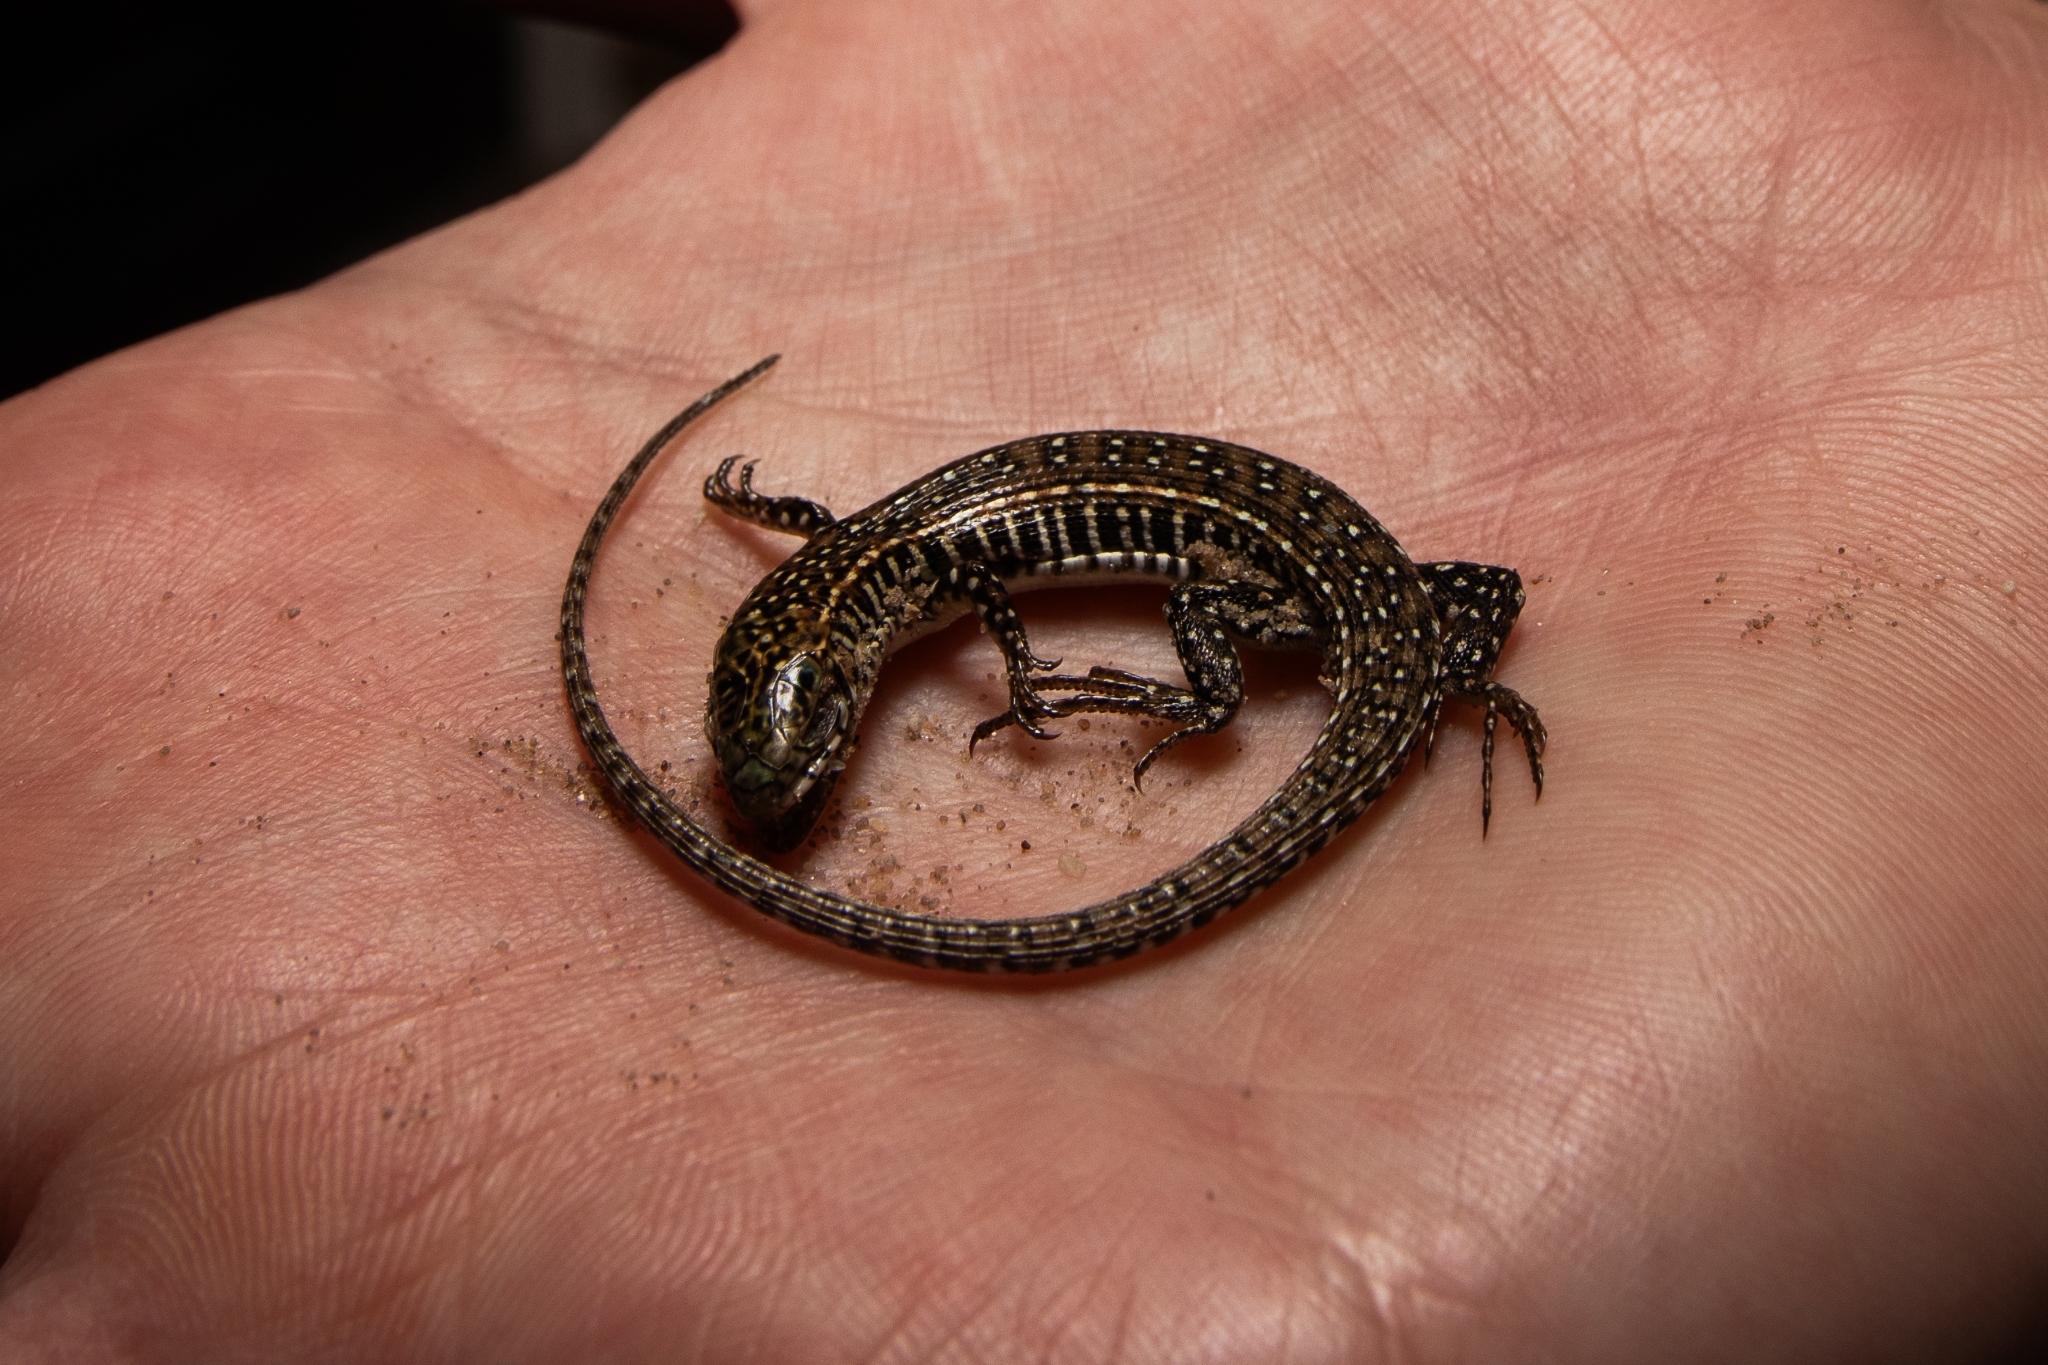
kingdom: Animalia
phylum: Chordata
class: Squamata
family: Gerrhosauridae
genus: Gerrhosaurus
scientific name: Gerrhosaurus flavigularis
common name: Yellow-throated plated lizard
